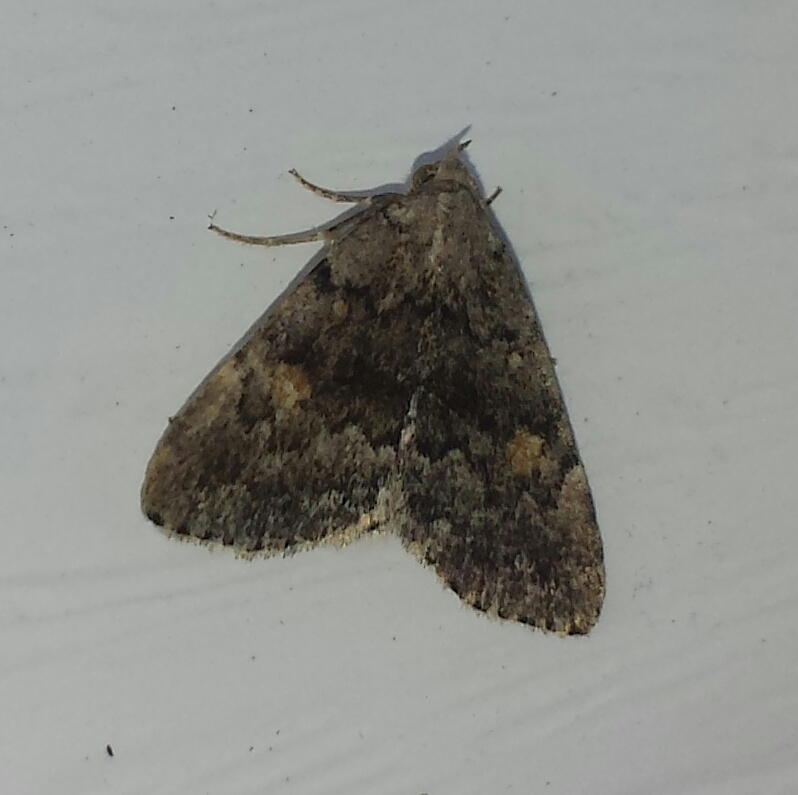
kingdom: Animalia
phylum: Arthropoda
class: Insecta
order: Lepidoptera
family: Erebidae
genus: Idia
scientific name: Idia aemula
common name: Common idia moth
